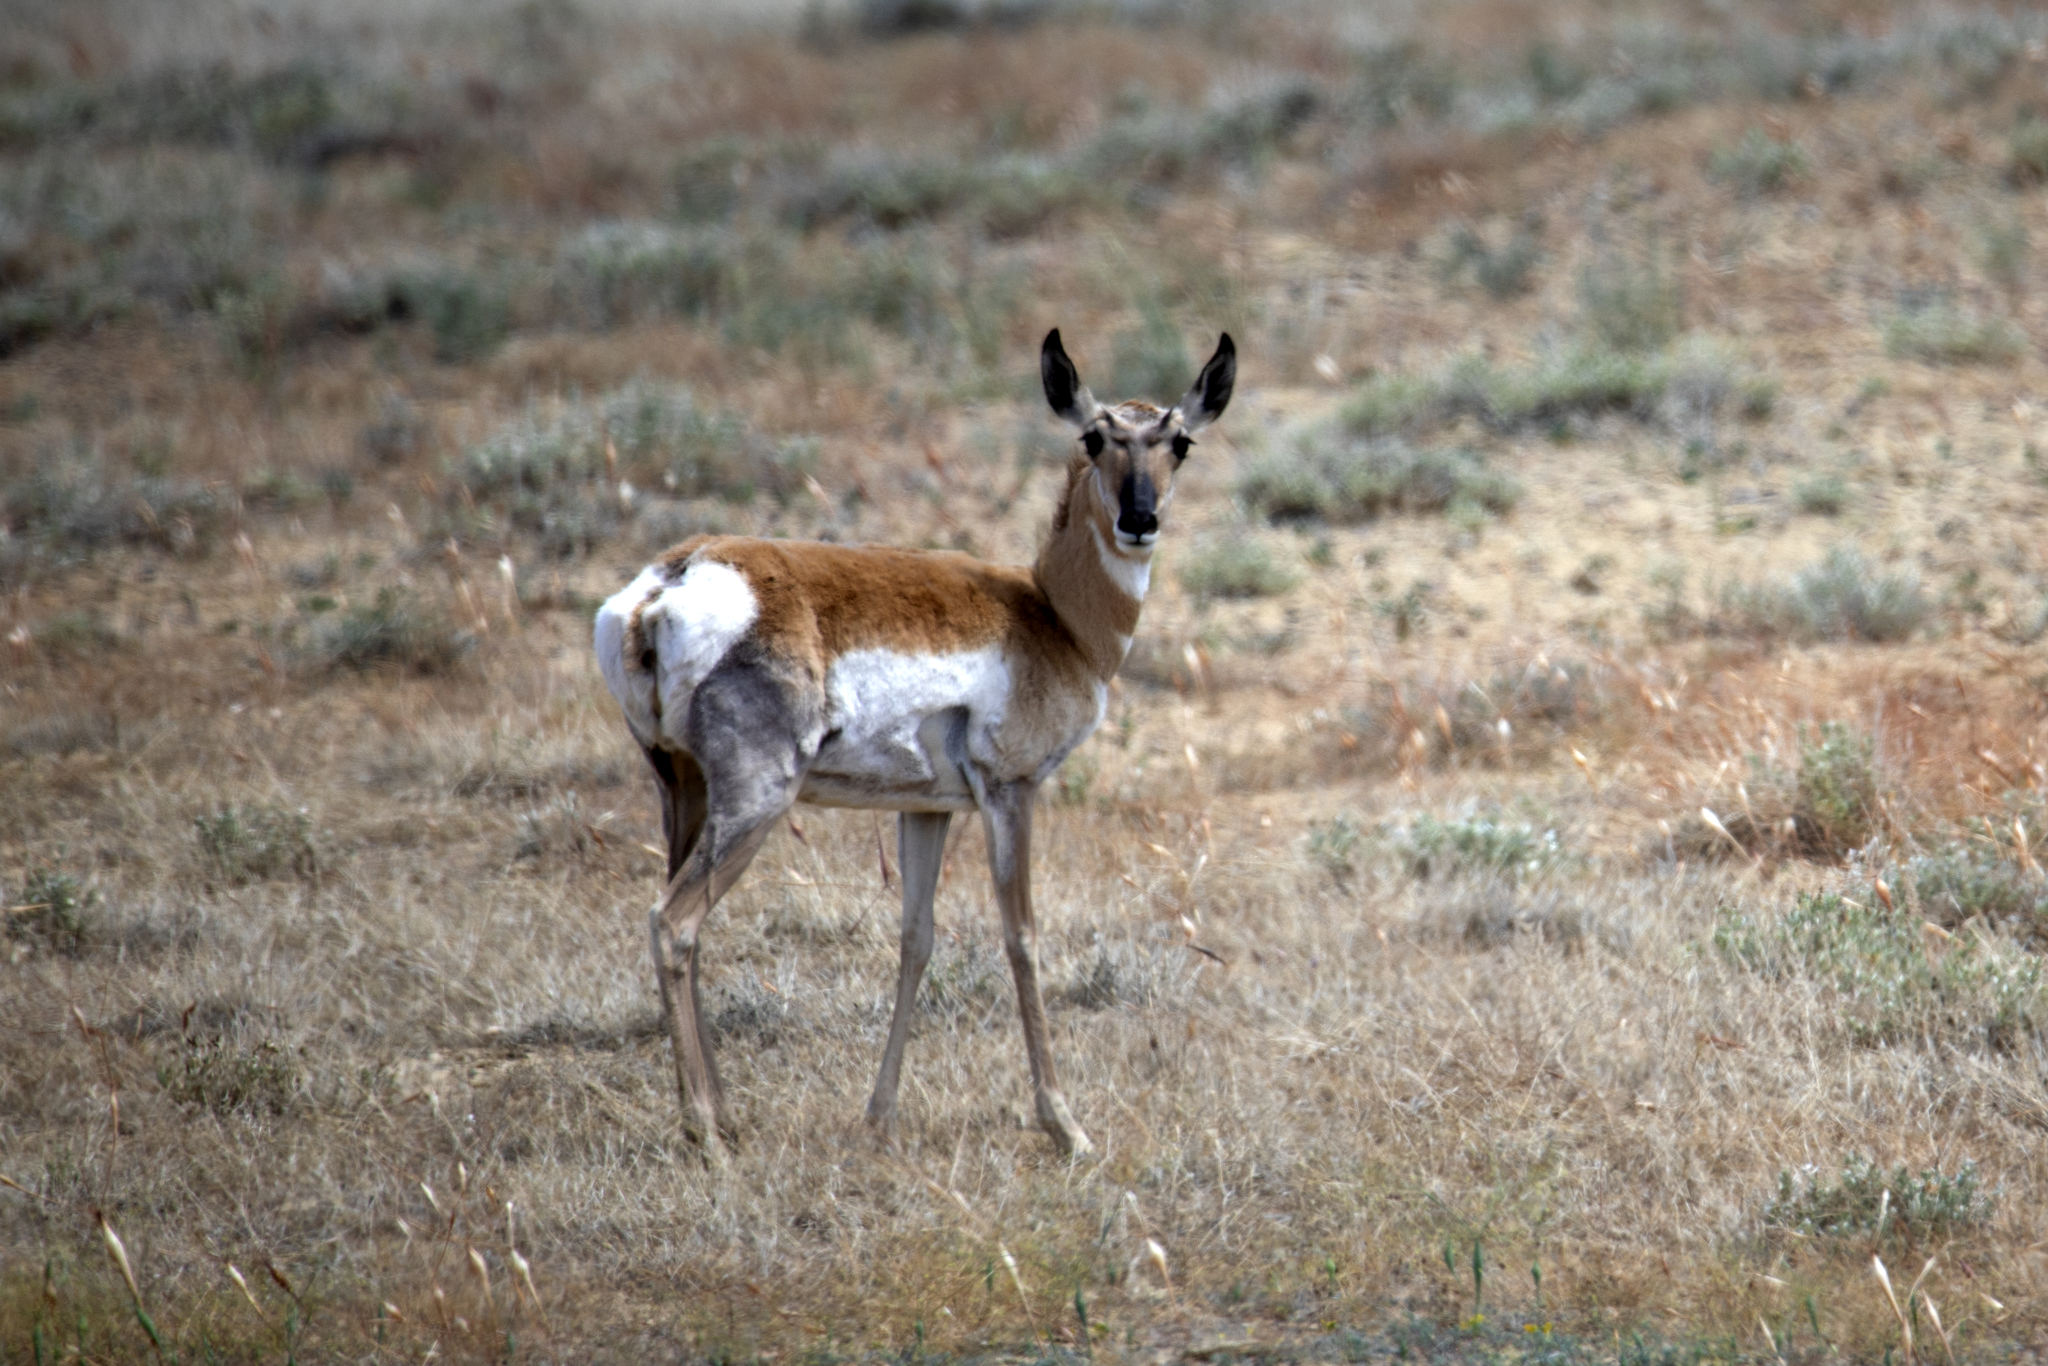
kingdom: Animalia
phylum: Chordata
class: Mammalia
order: Artiodactyla
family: Antilocapridae
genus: Antilocapra
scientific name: Antilocapra americana
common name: Pronghorn
